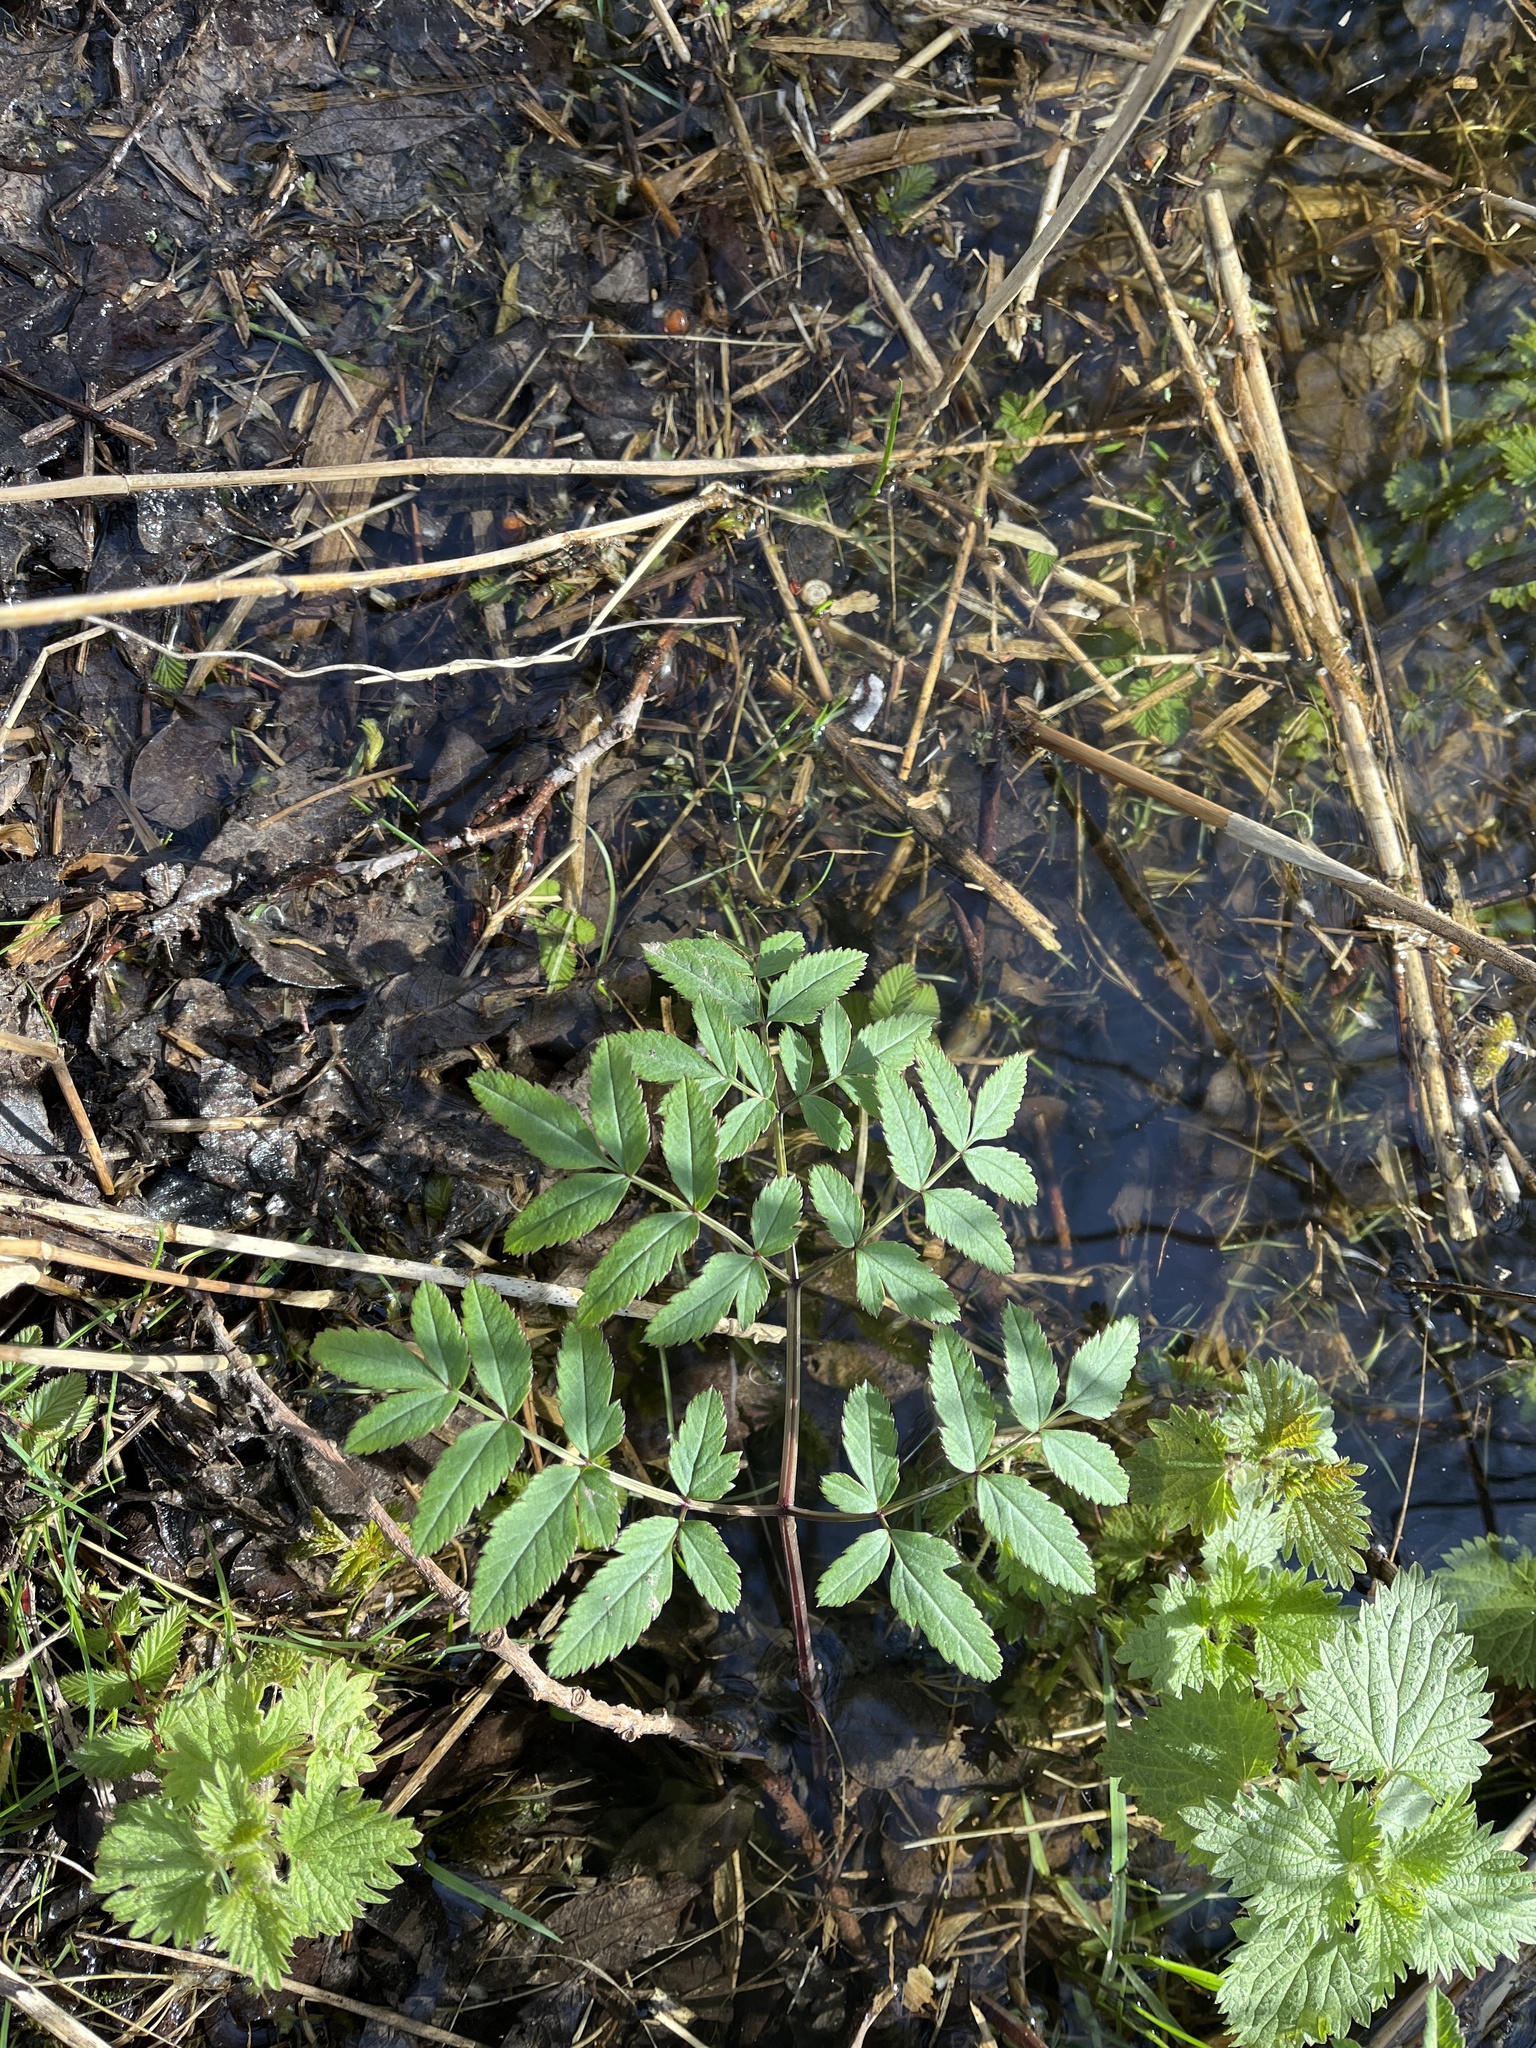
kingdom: Plantae
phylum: Tracheophyta
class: Magnoliopsida
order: Apiales
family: Apiaceae
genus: Angelica
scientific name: Angelica sylvestris
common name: Wild angelica
